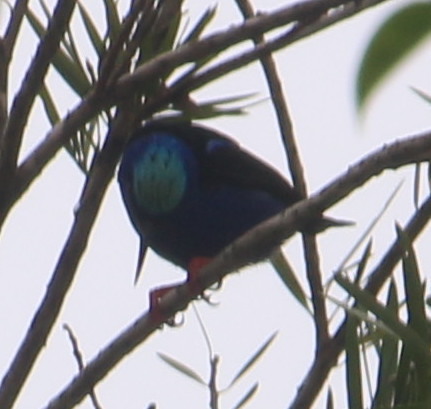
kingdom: Animalia
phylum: Chordata
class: Aves
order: Passeriformes
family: Thraupidae
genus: Cyanerpes
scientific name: Cyanerpes cyaneus
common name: Red-legged honeycreeper
